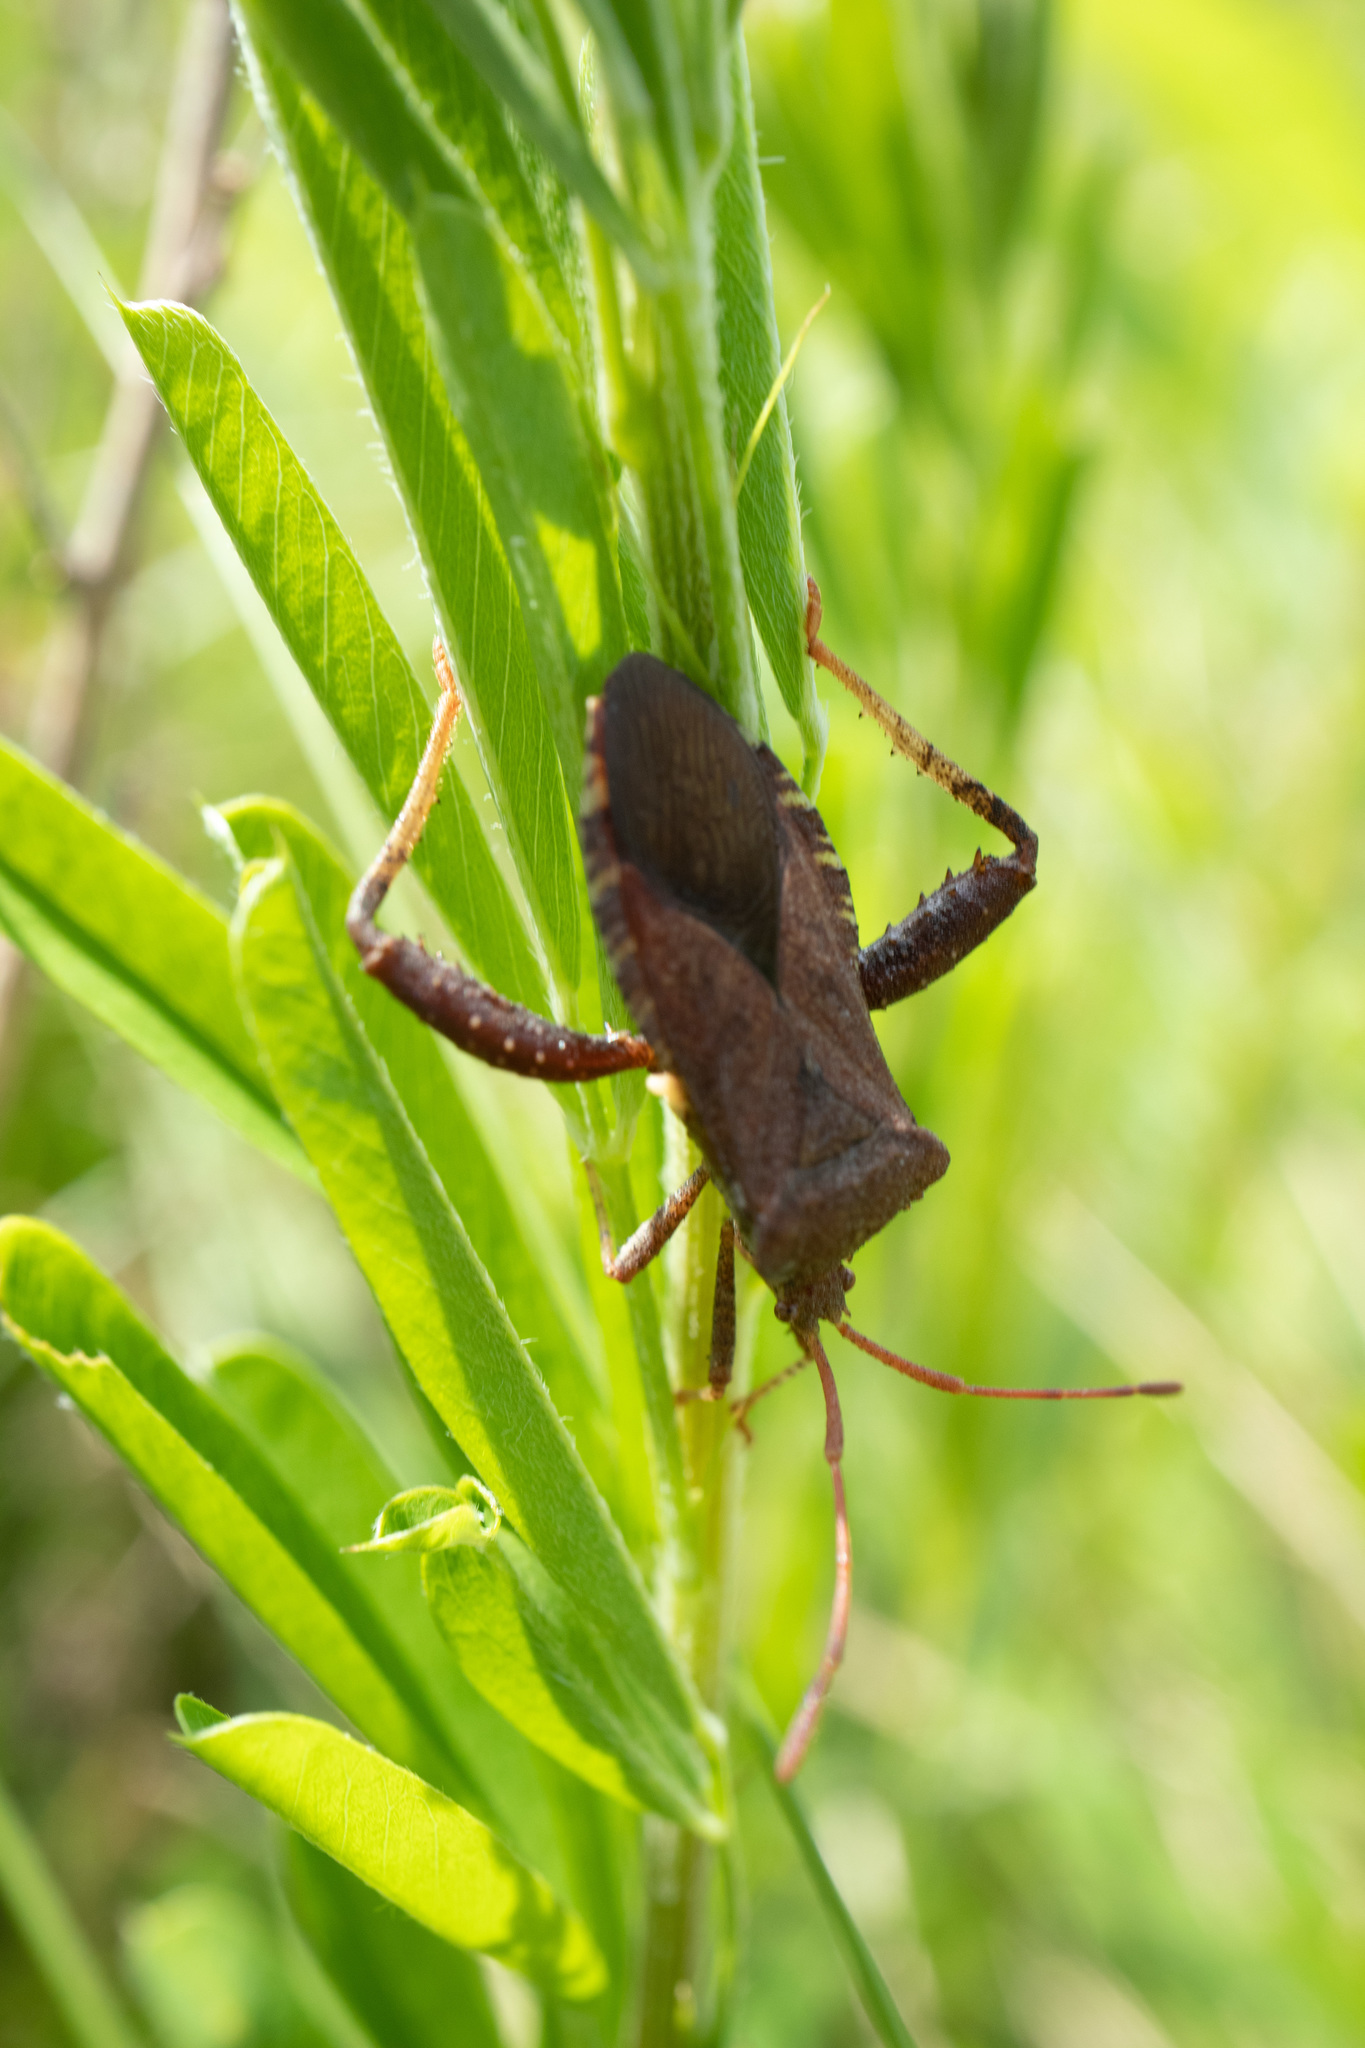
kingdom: Animalia
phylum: Arthropoda
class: Insecta
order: Hemiptera
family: Coreidae
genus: Euthochtha
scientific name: Euthochtha galeator
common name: Helmeted squash bug
